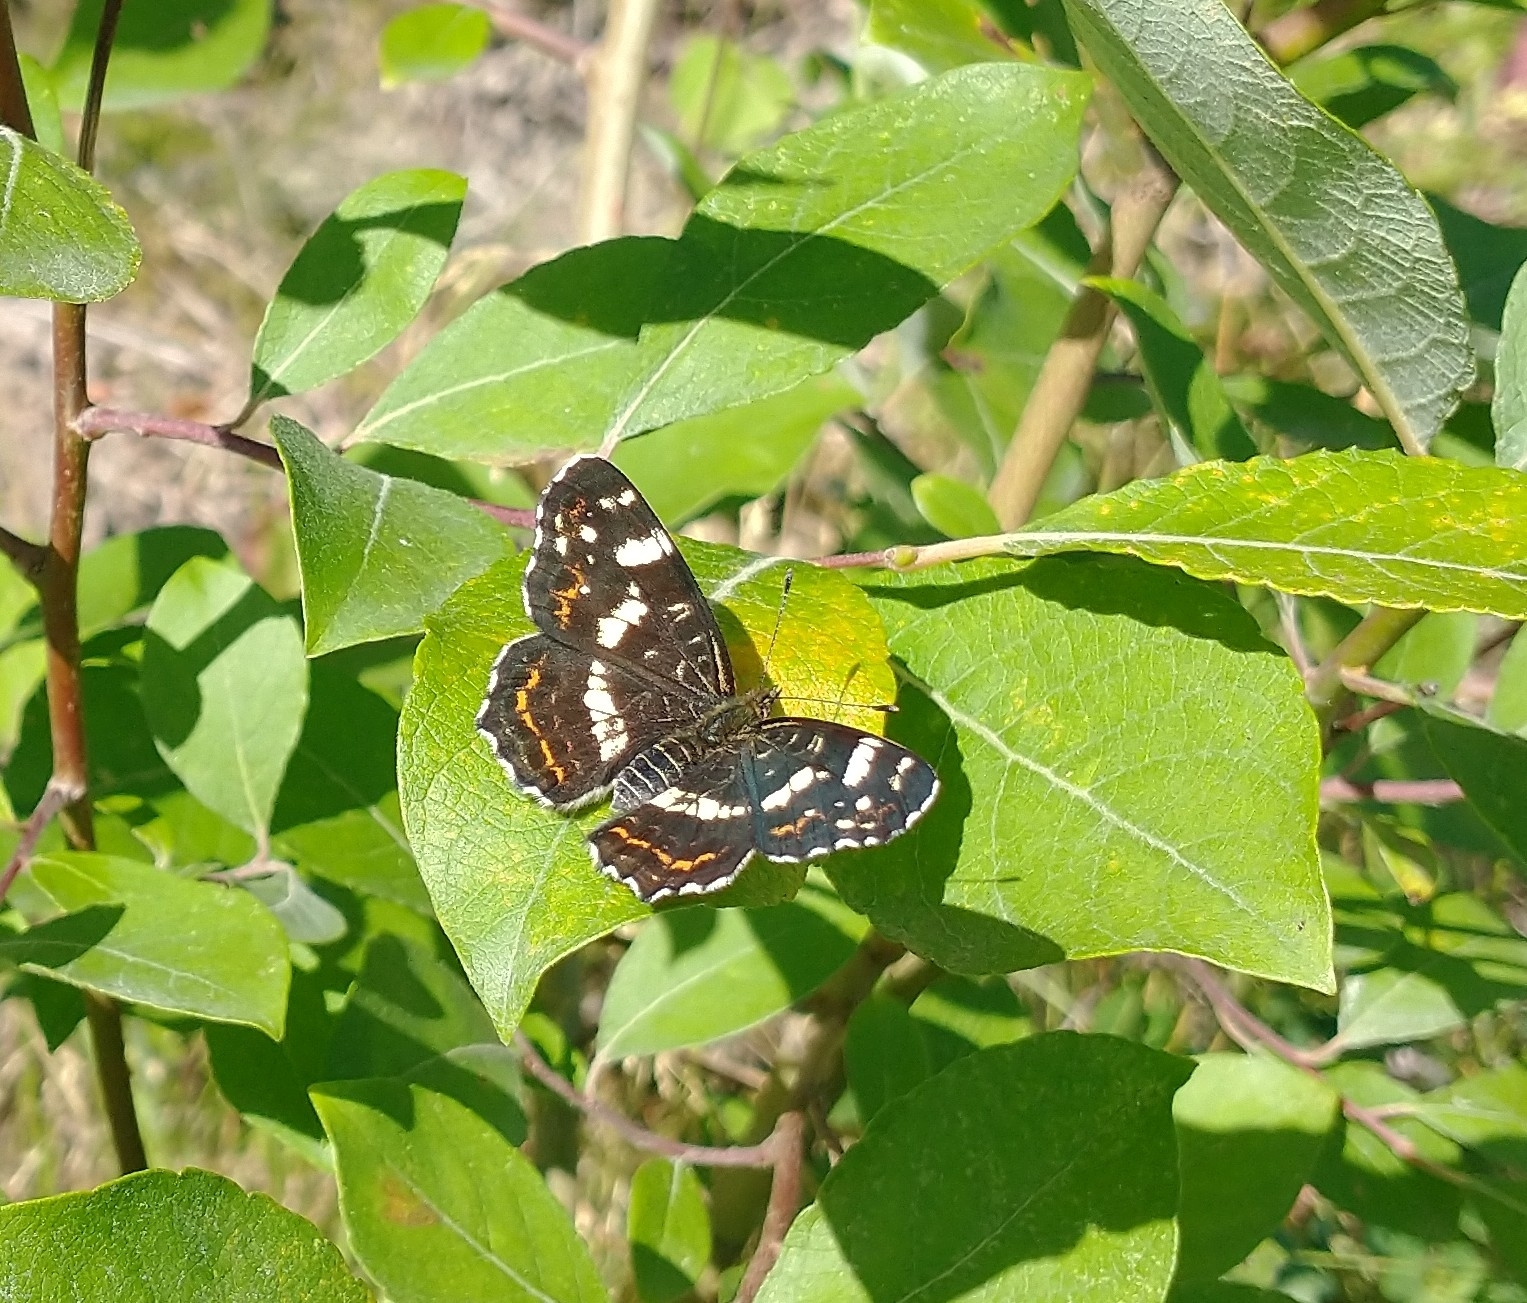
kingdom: Animalia
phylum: Arthropoda
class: Insecta
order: Lepidoptera
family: Nymphalidae
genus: Araschnia
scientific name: Araschnia levana
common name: Map butterfly
